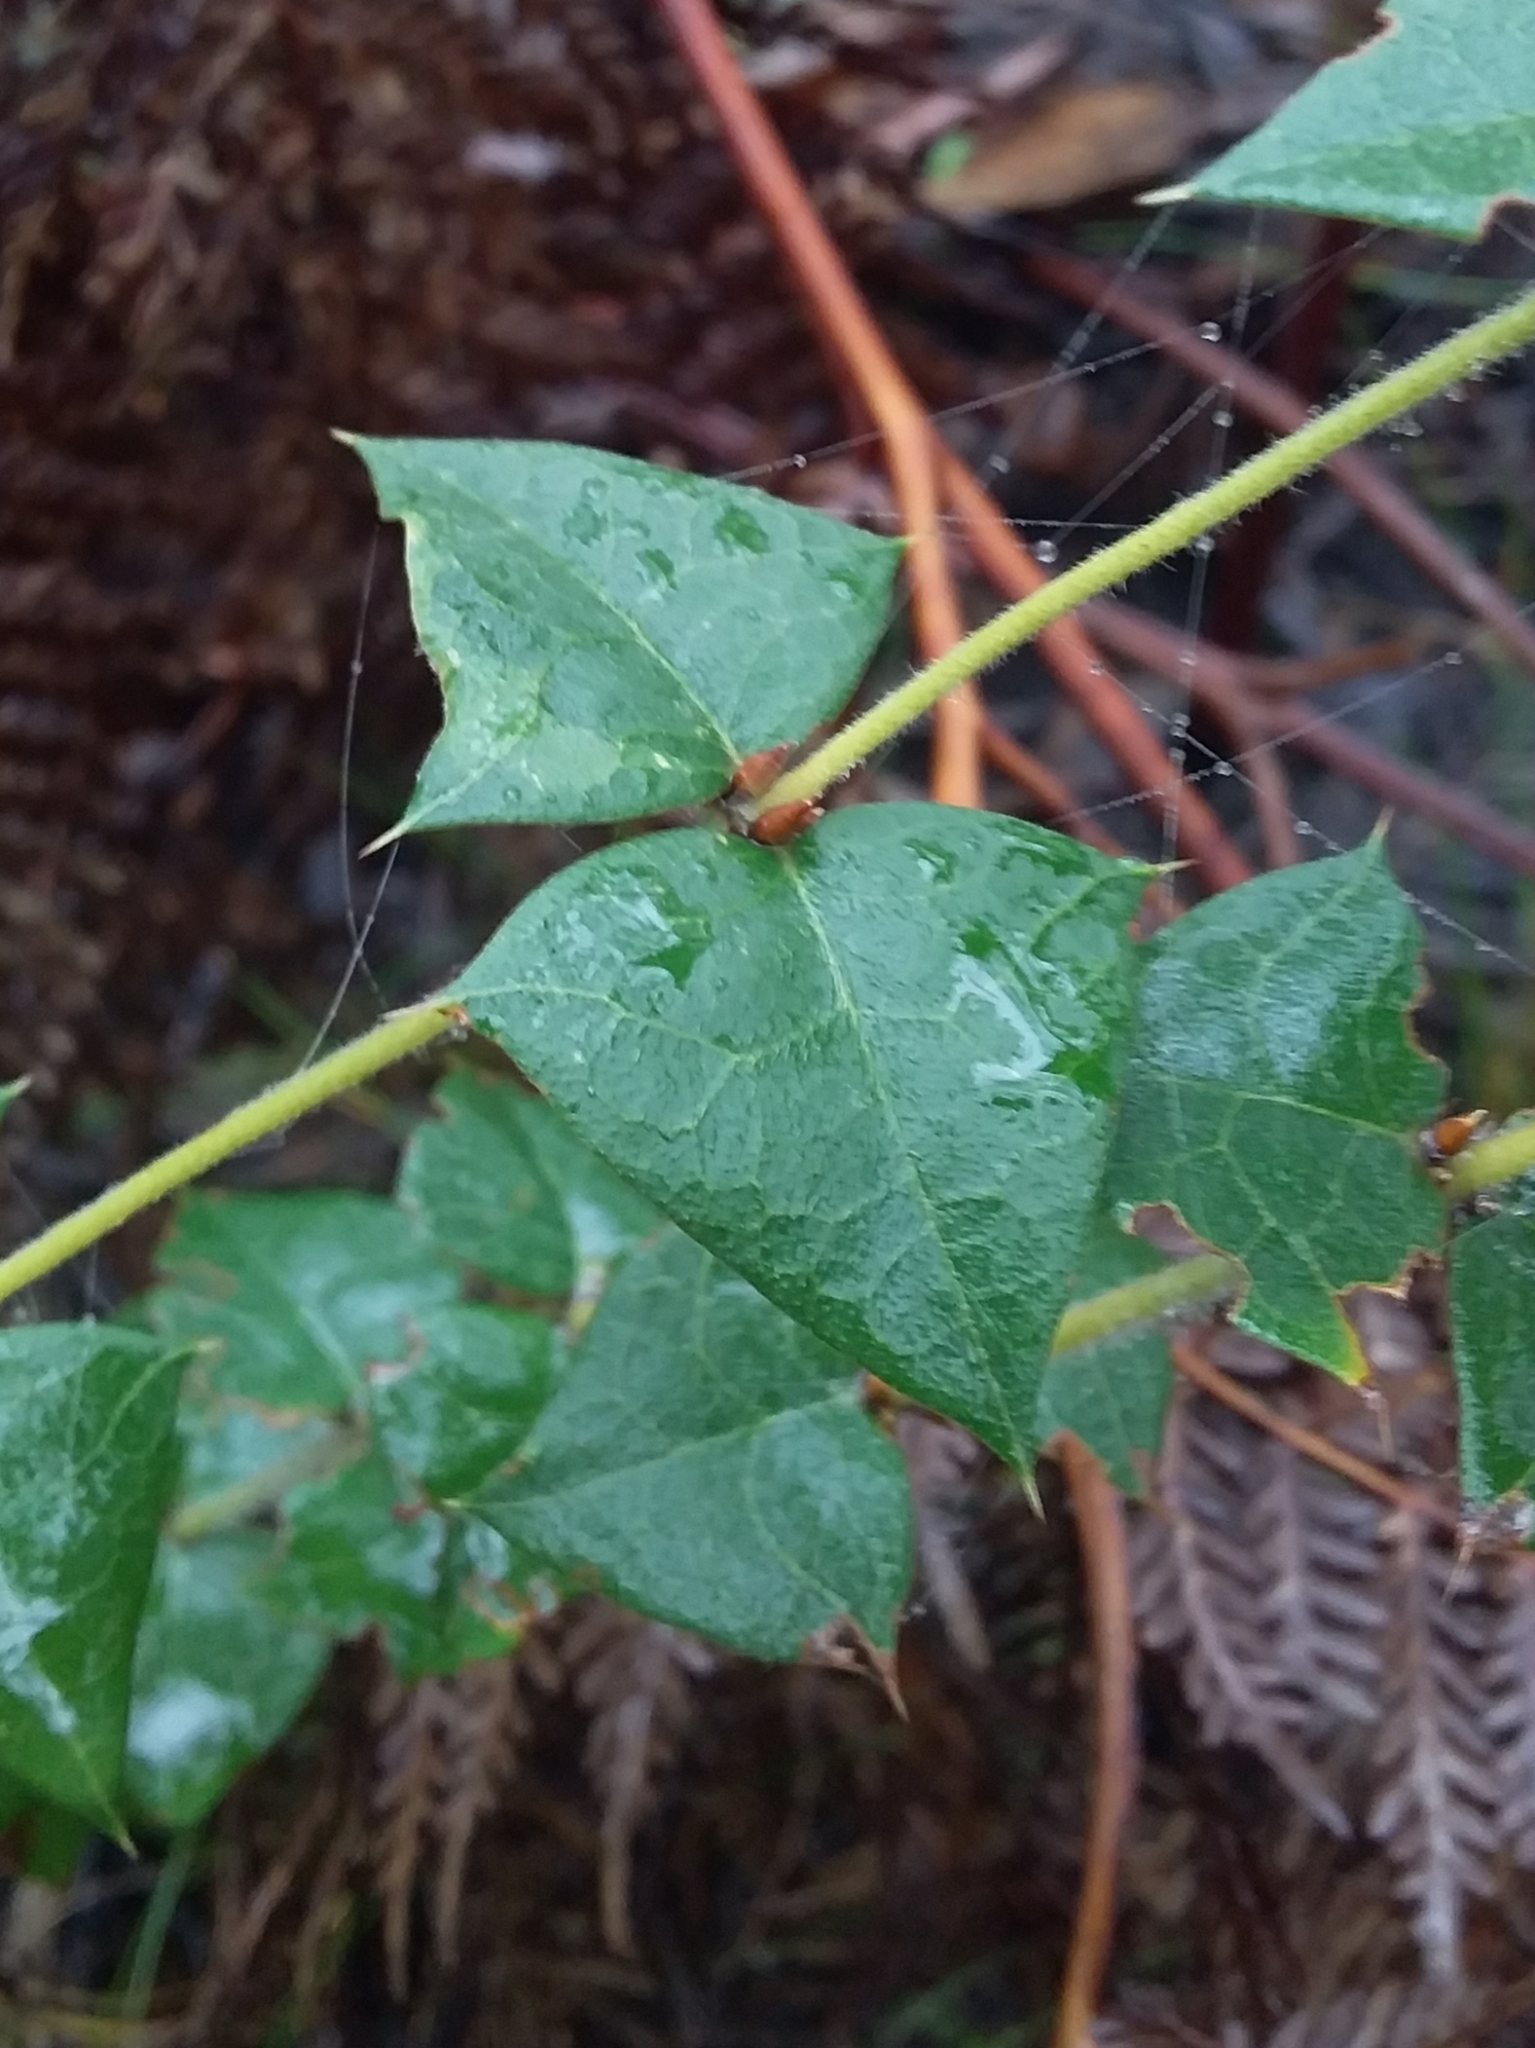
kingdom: Plantae
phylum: Tracheophyta
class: Magnoliopsida
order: Fabales
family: Fabaceae
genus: Platylobium
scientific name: Platylobium obtusangulum
